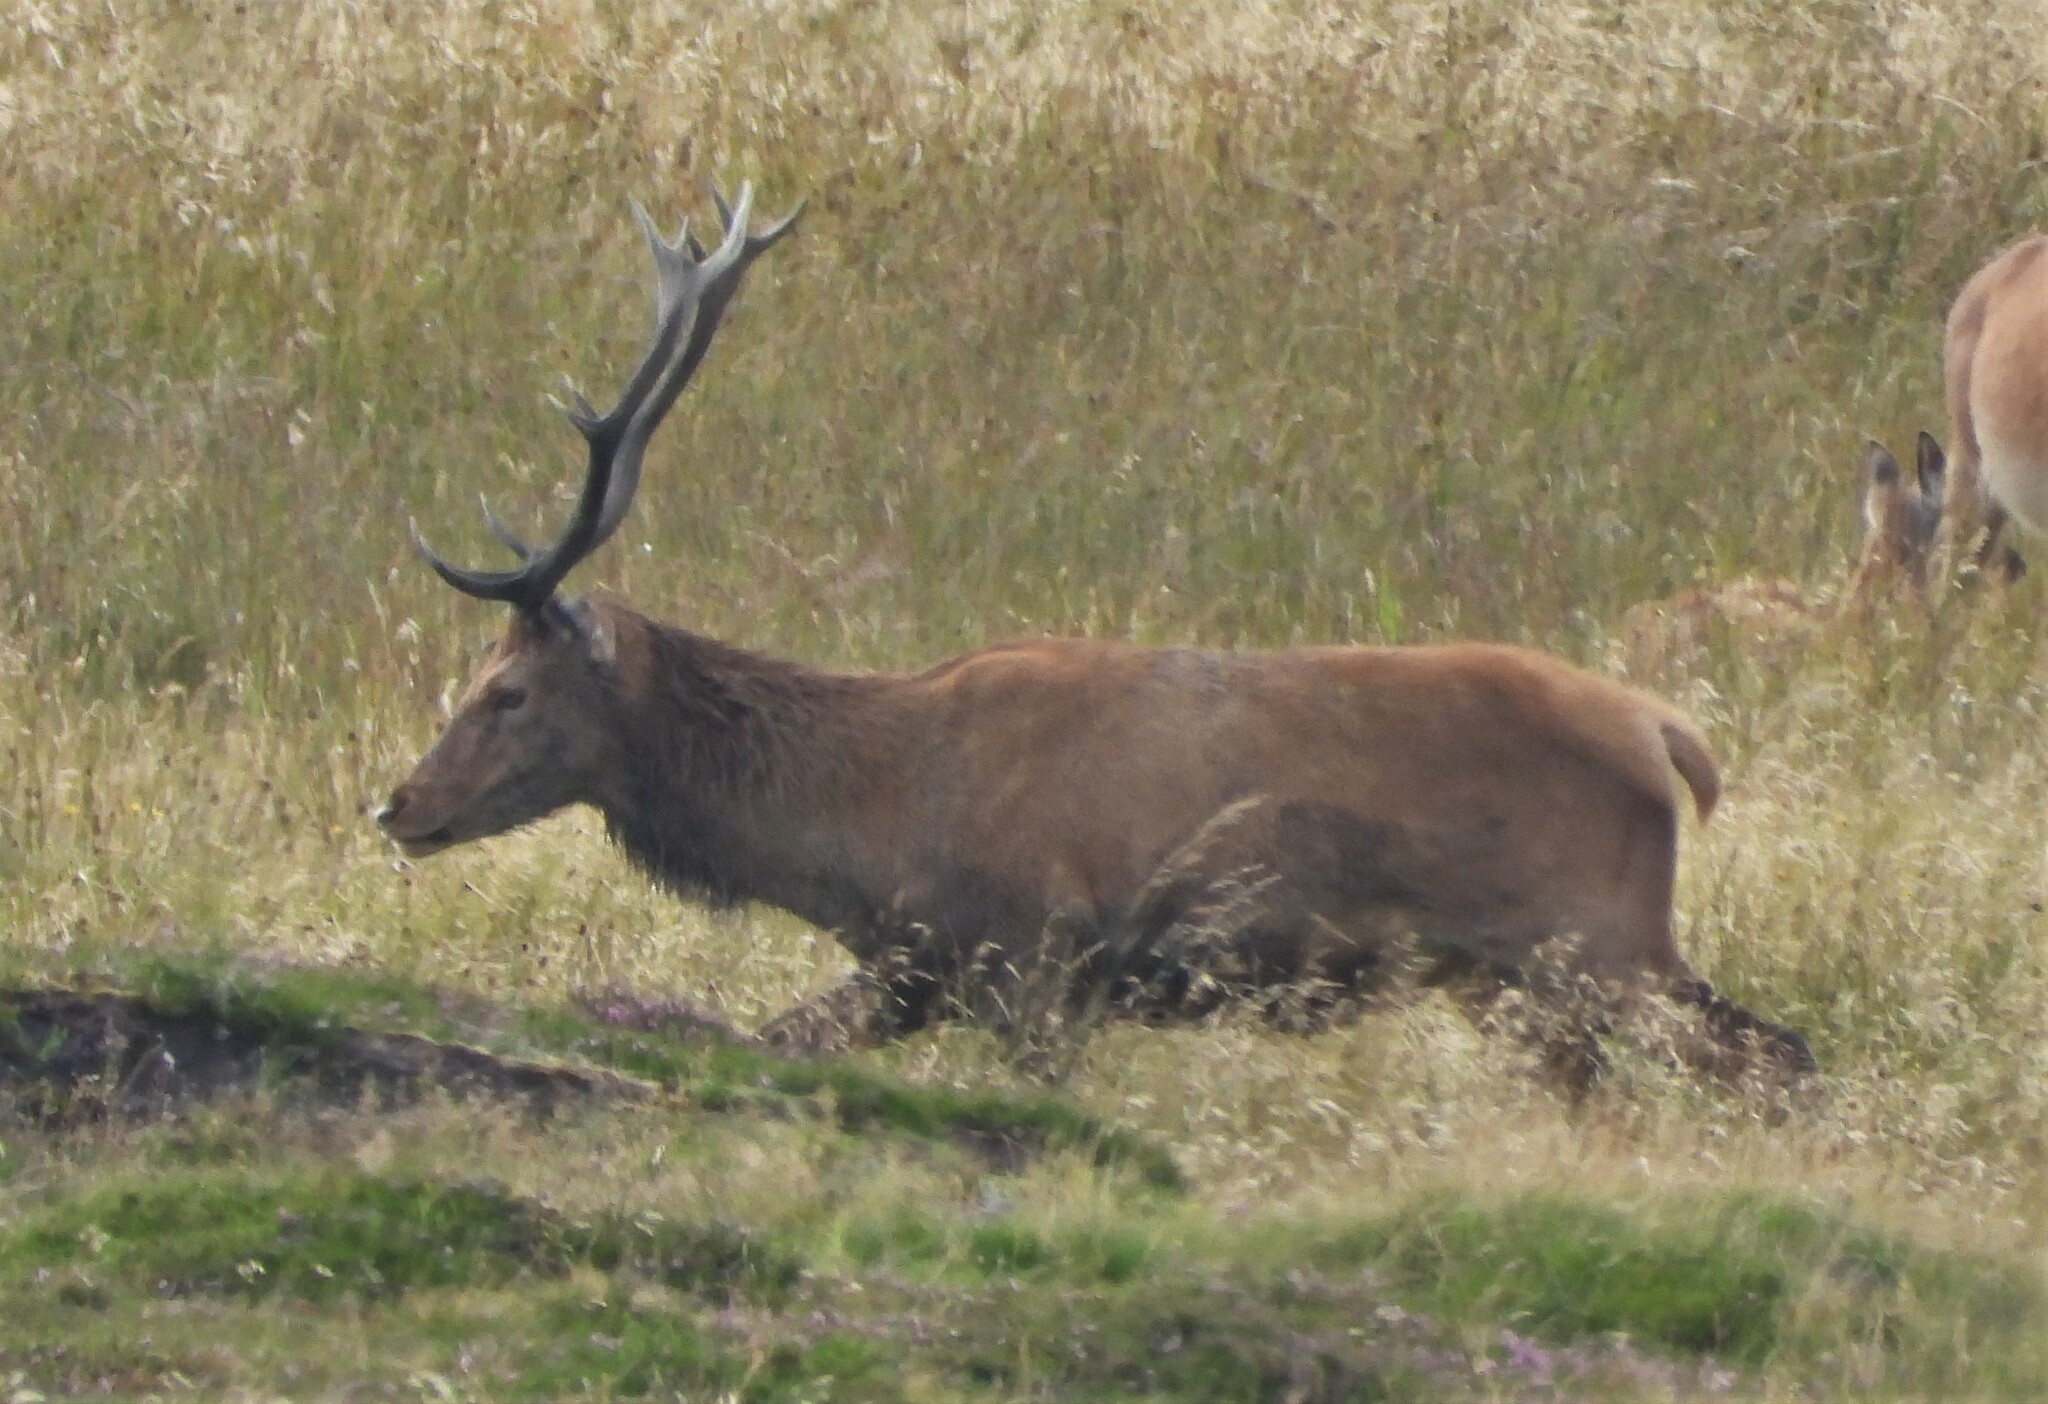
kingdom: Animalia
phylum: Chordata
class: Mammalia
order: Artiodactyla
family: Cervidae
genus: Cervus
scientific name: Cervus elaphus
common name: Red deer
